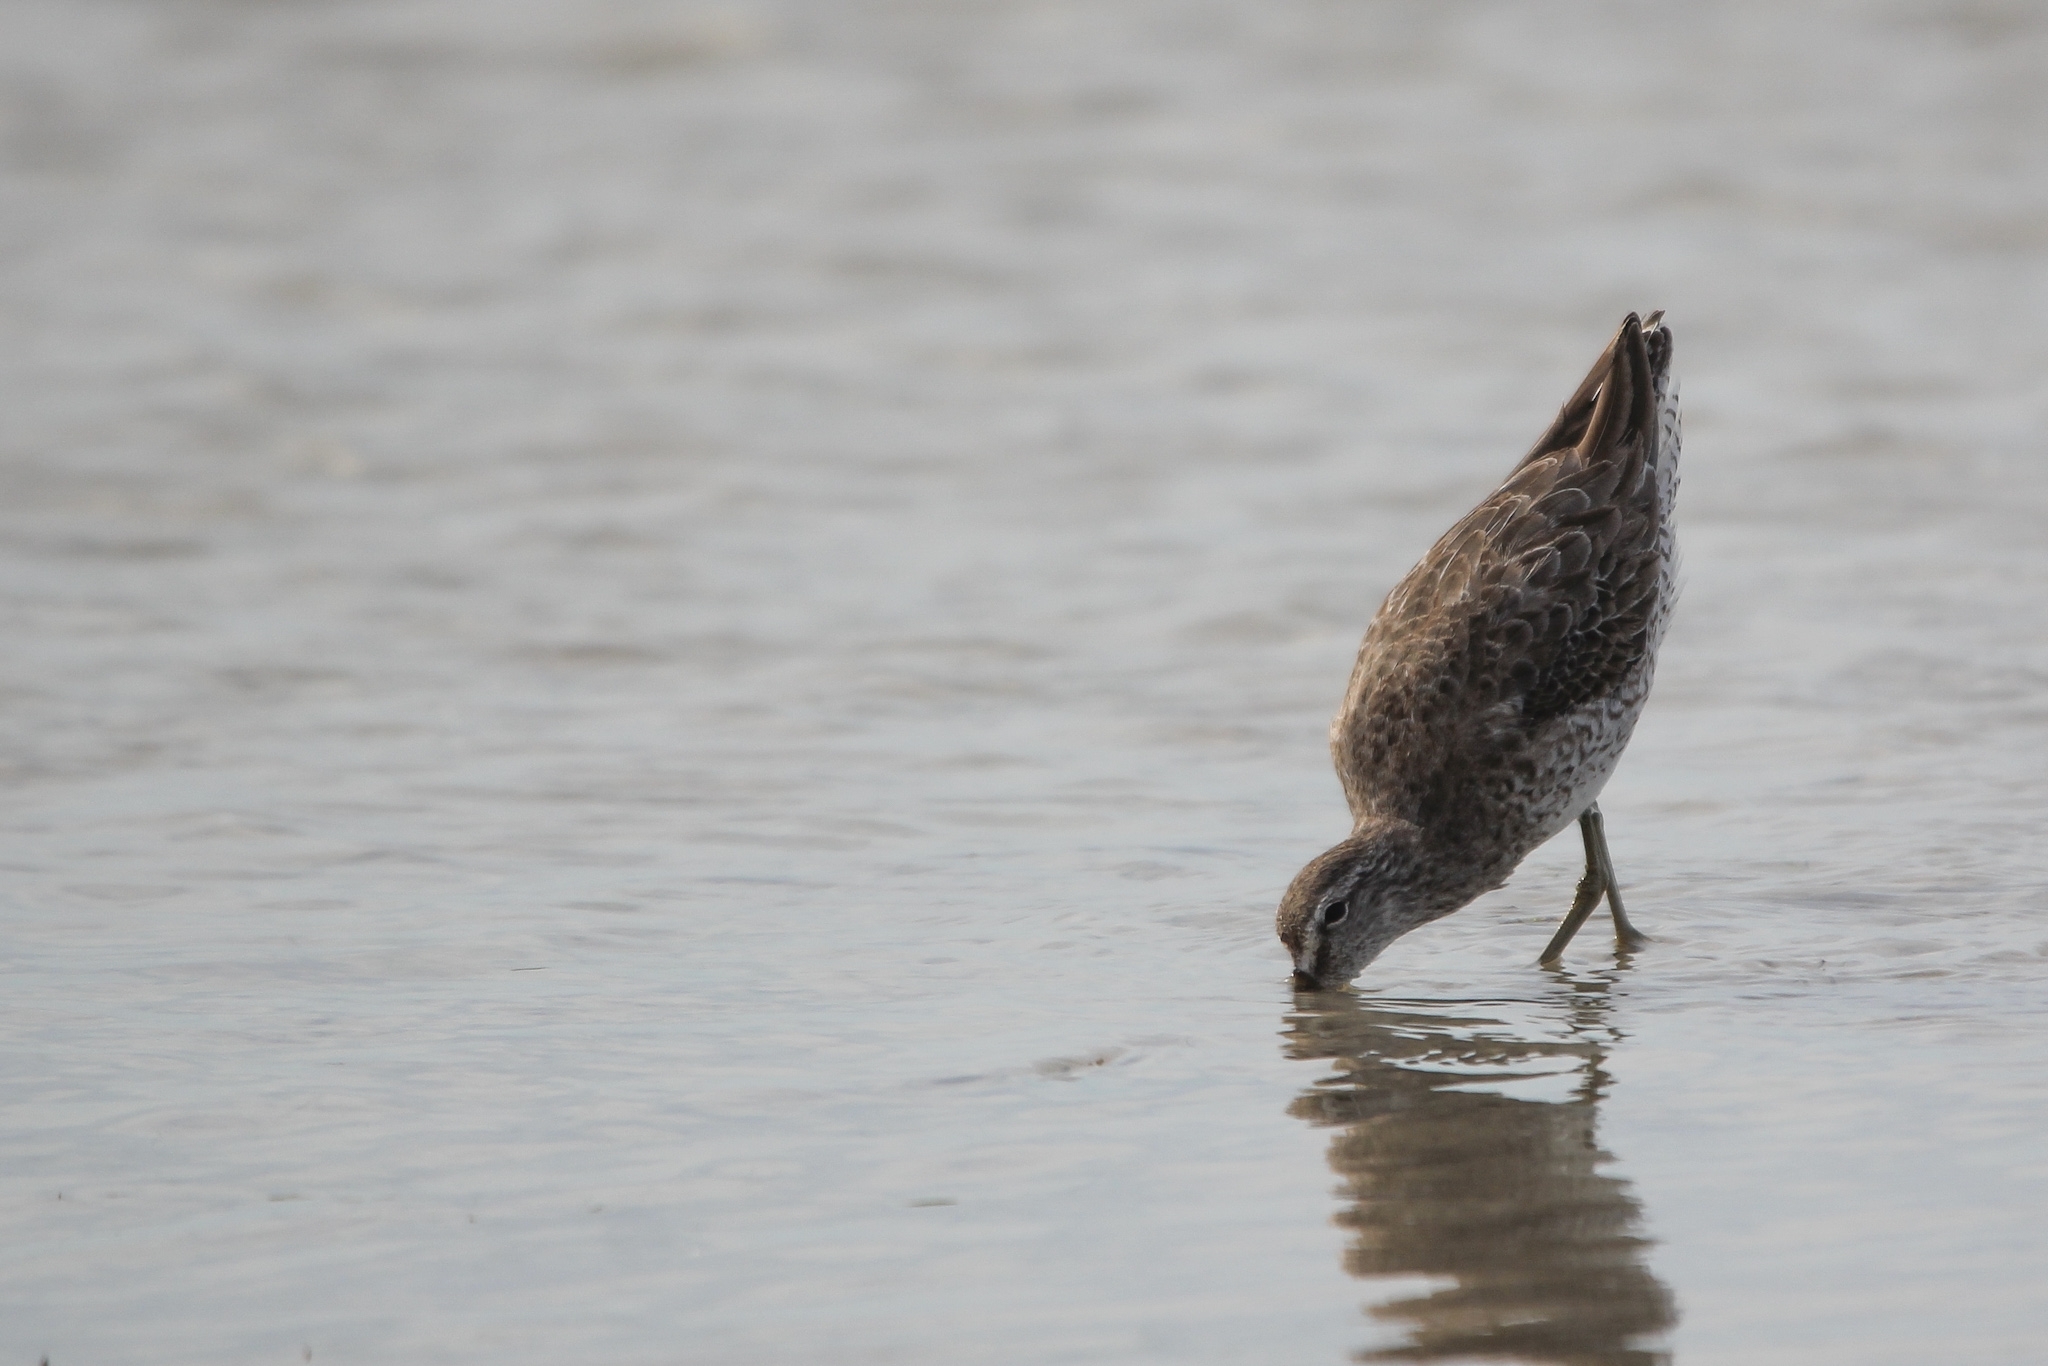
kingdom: Animalia
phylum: Chordata
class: Aves
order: Charadriiformes
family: Scolopacidae
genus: Limnodromus
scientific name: Limnodromus griseus
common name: Short-billed dowitcher
